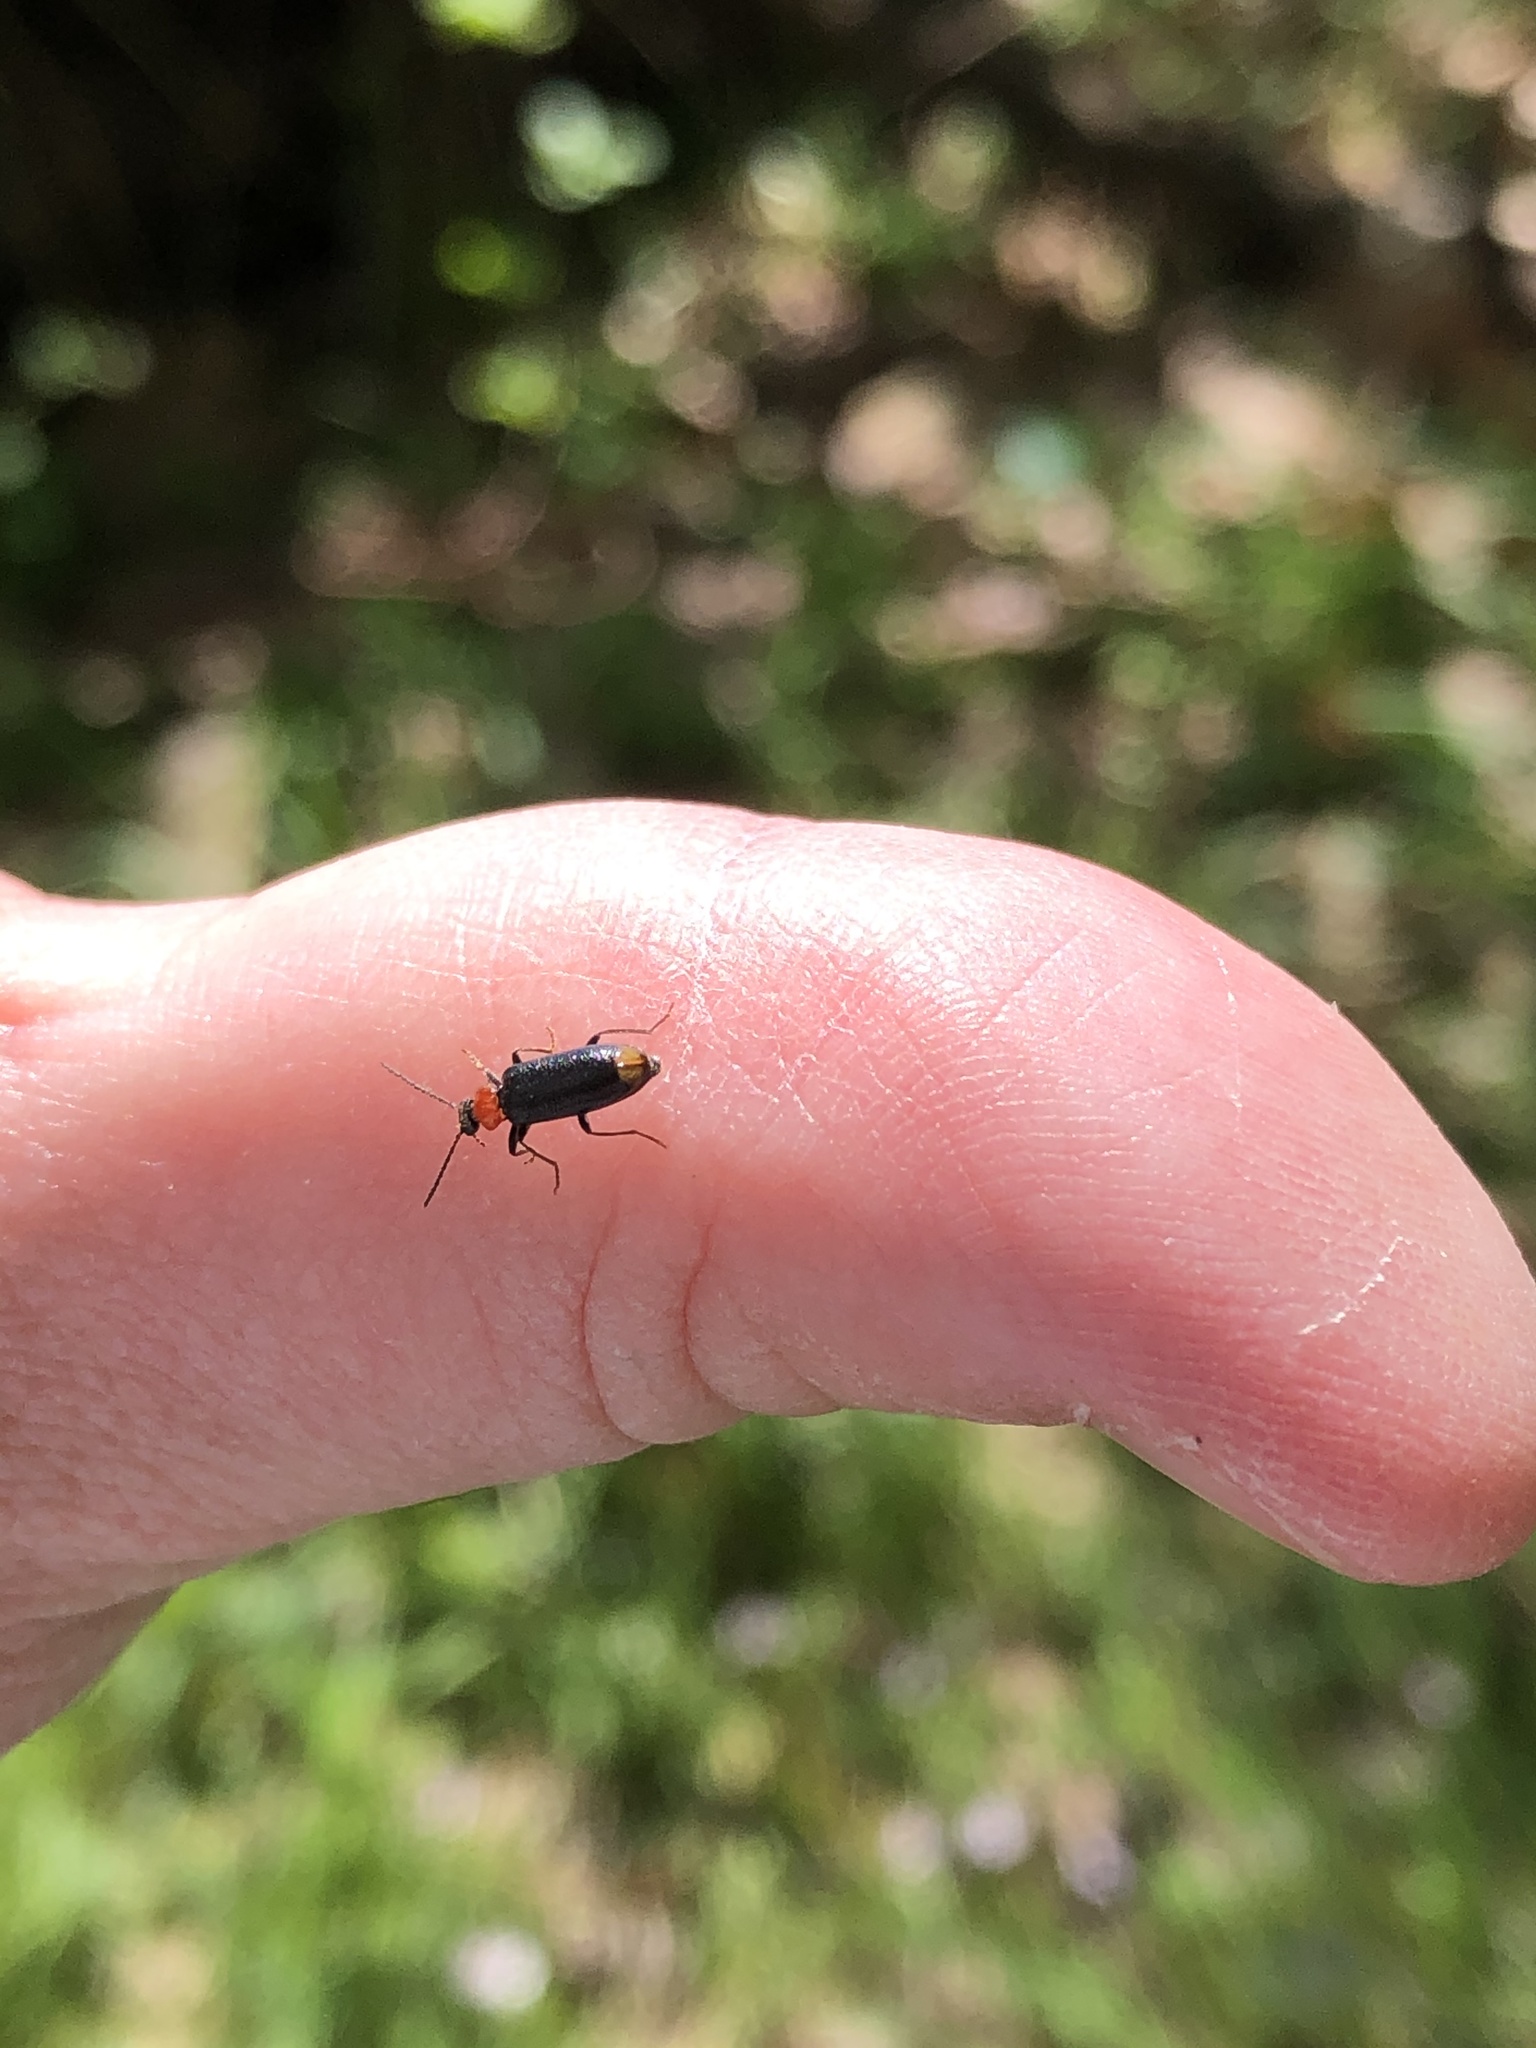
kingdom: Animalia
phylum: Arthropoda
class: Insecta
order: Coleoptera
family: Pyrochroidae
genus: Pedilus
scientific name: Pedilus terminalis
